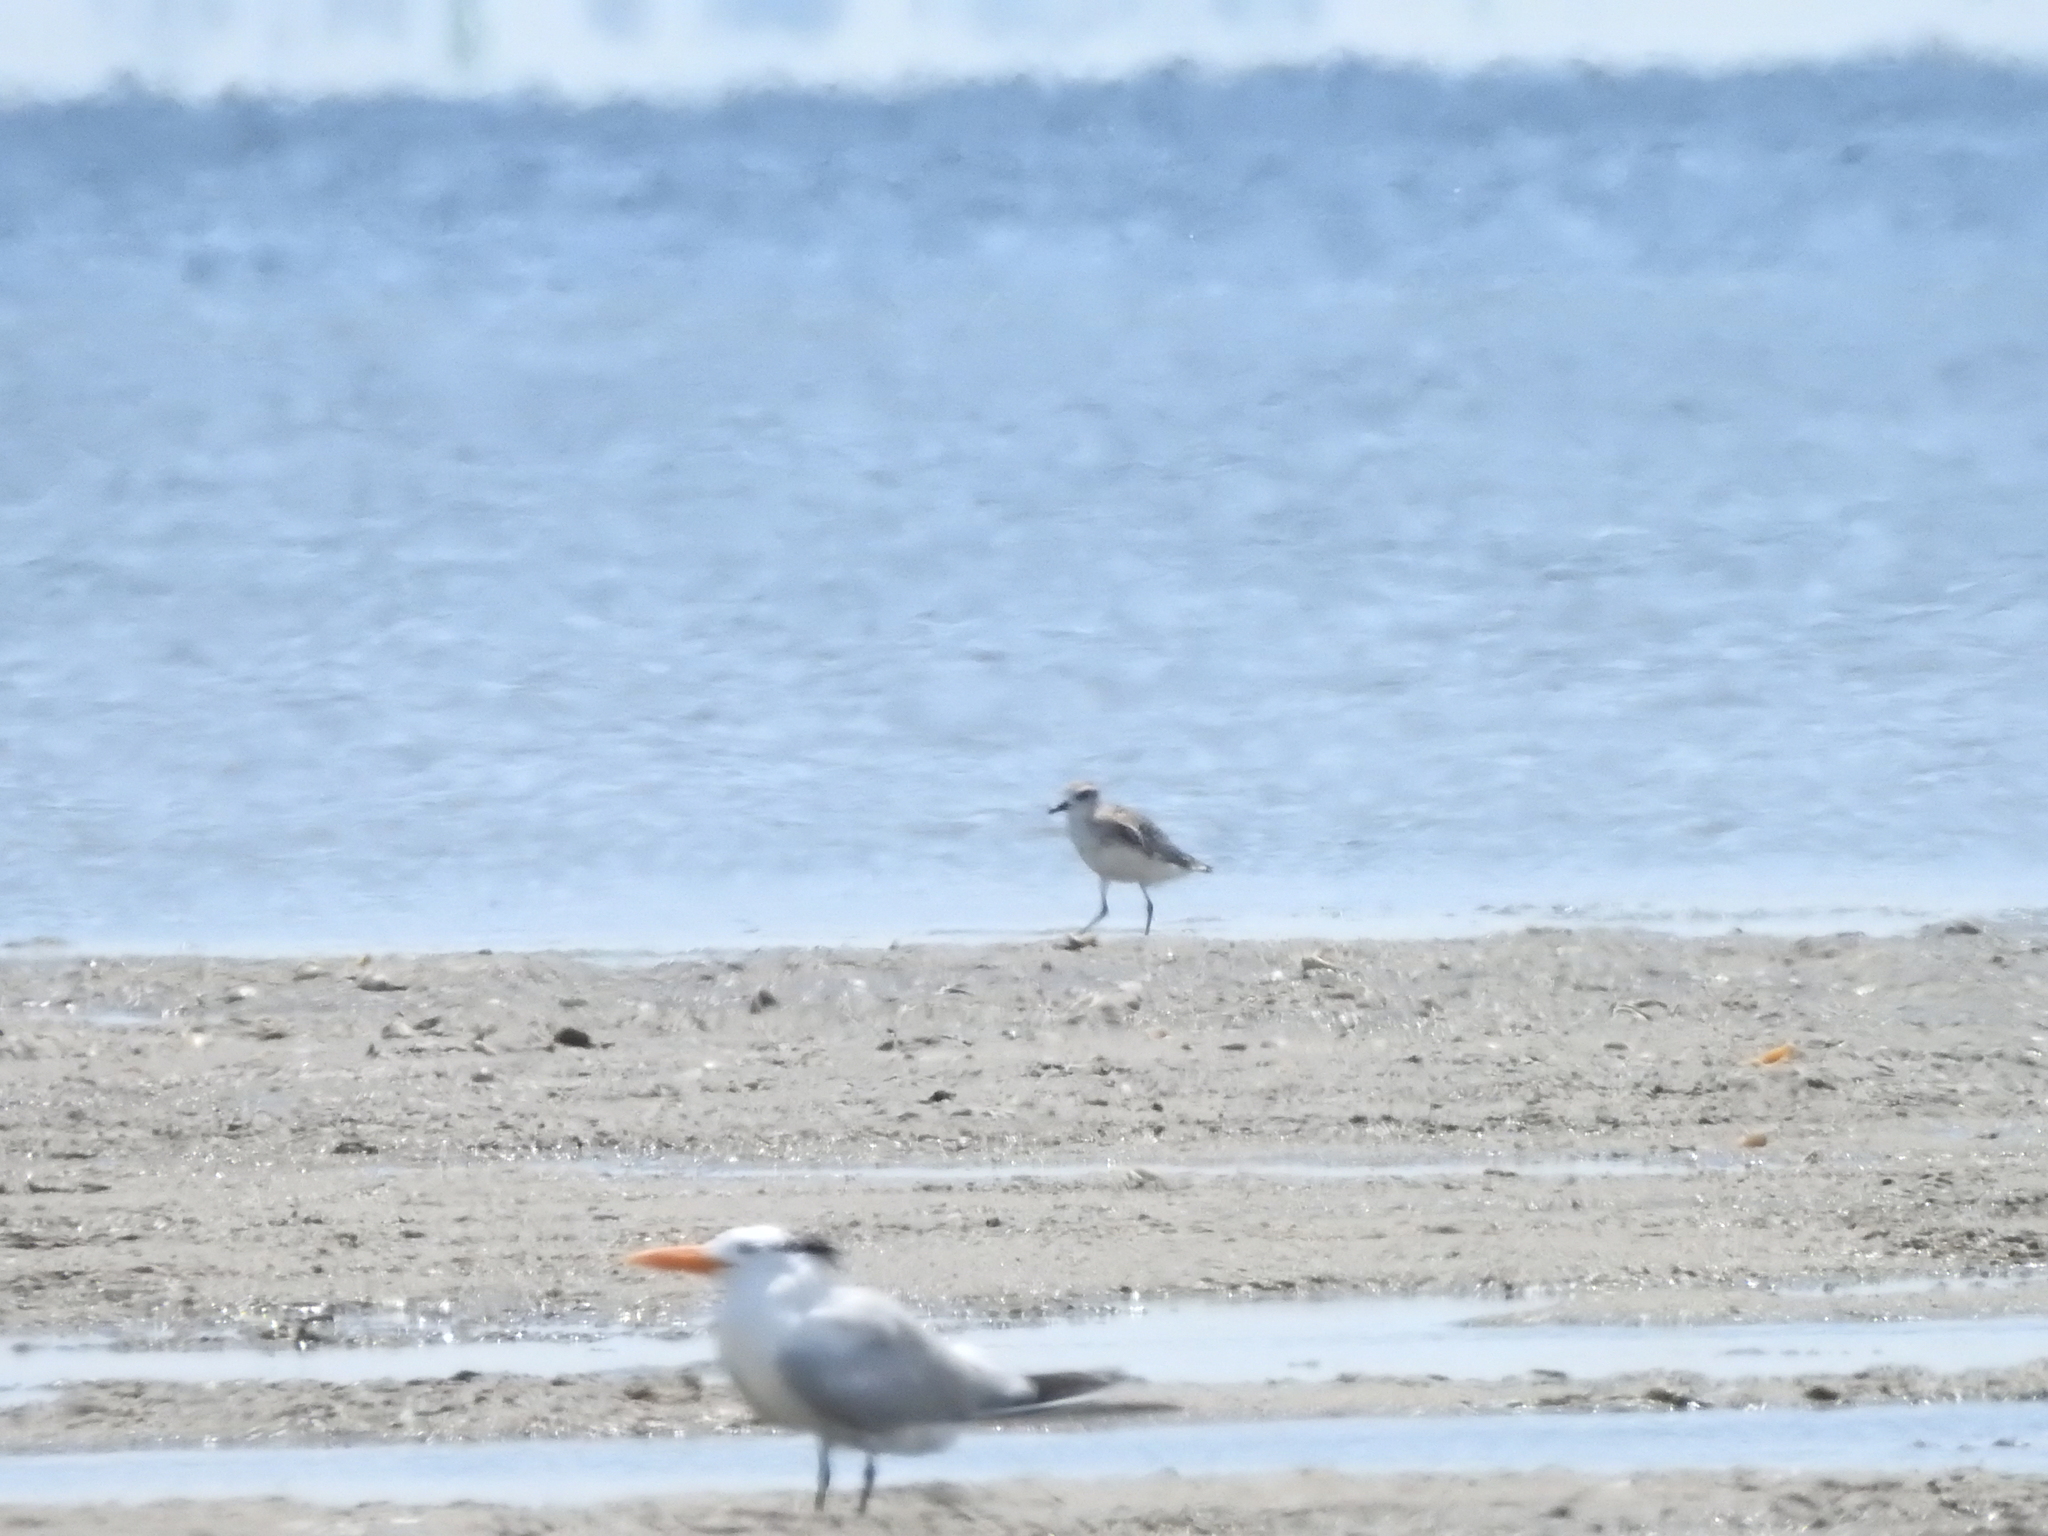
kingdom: Animalia
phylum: Chordata
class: Aves
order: Charadriiformes
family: Charadriidae
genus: Pluvialis
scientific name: Pluvialis squatarola
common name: Grey plover
